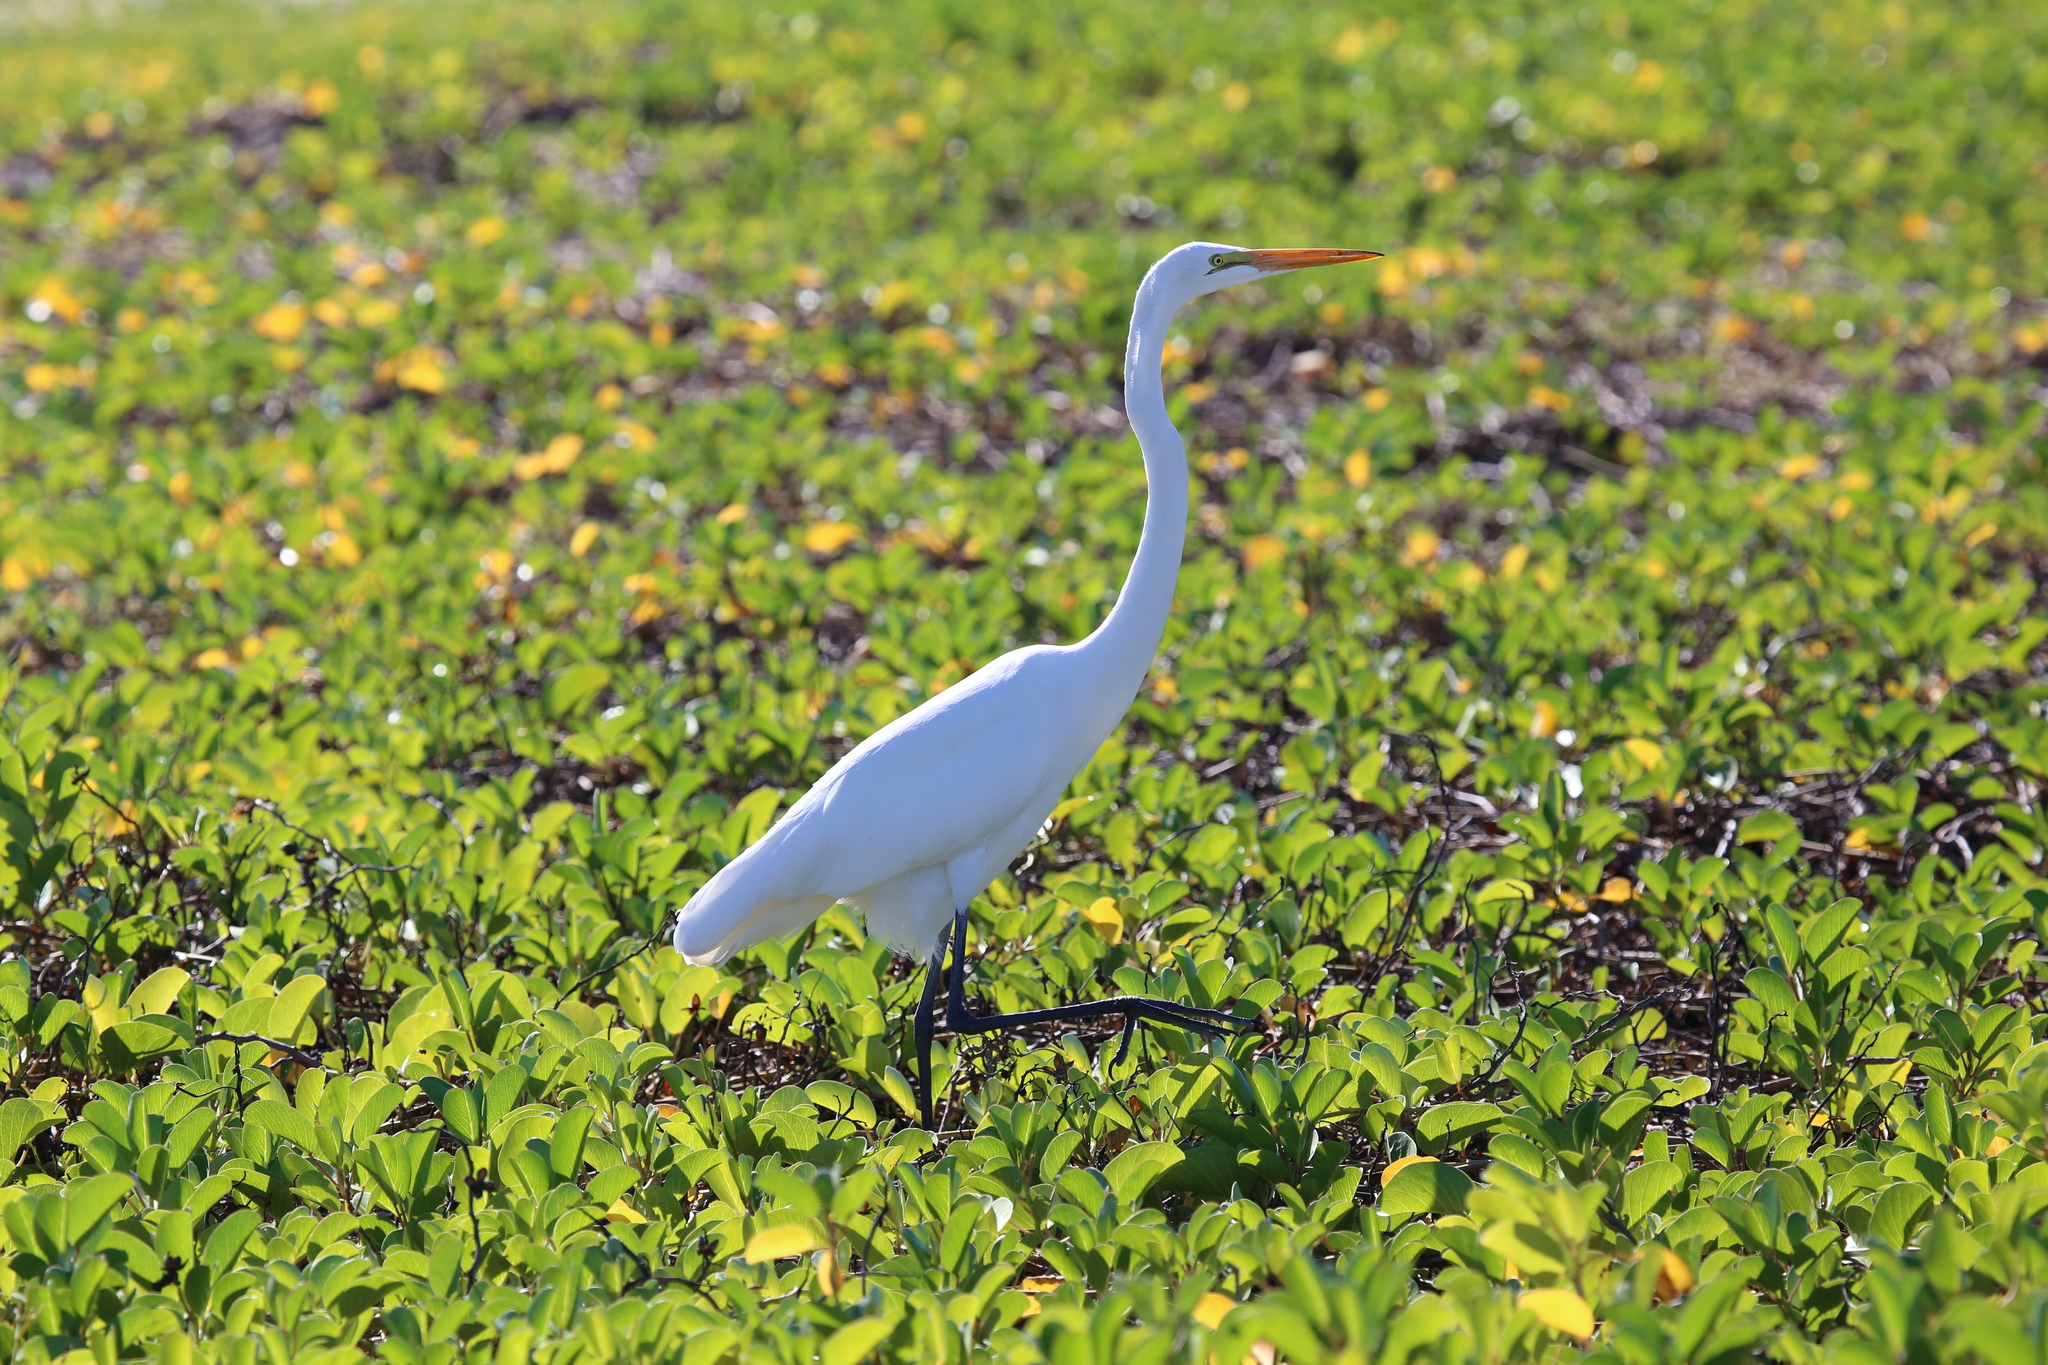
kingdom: Animalia
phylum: Chordata
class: Aves
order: Pelecaniformes
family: Ardeidae
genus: Ardea
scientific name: Ardea alba
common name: Great egret
